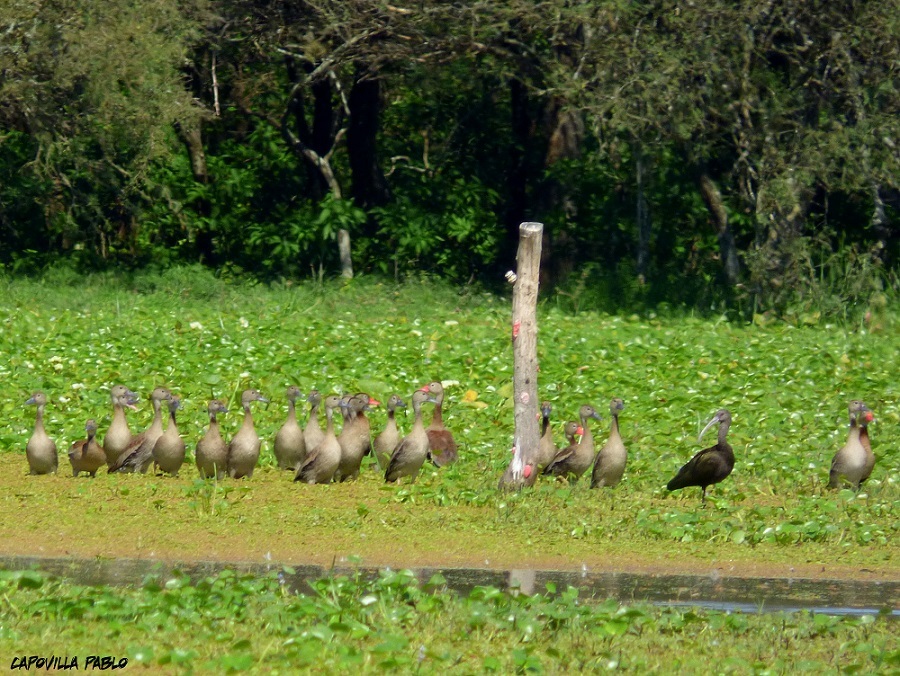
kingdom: Animalia
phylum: Chordata
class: Aves
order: Anseriformes
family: Anatidae
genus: Dendrocygna
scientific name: Dendrocygna autumnalis
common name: Black-bellied whistling duck
